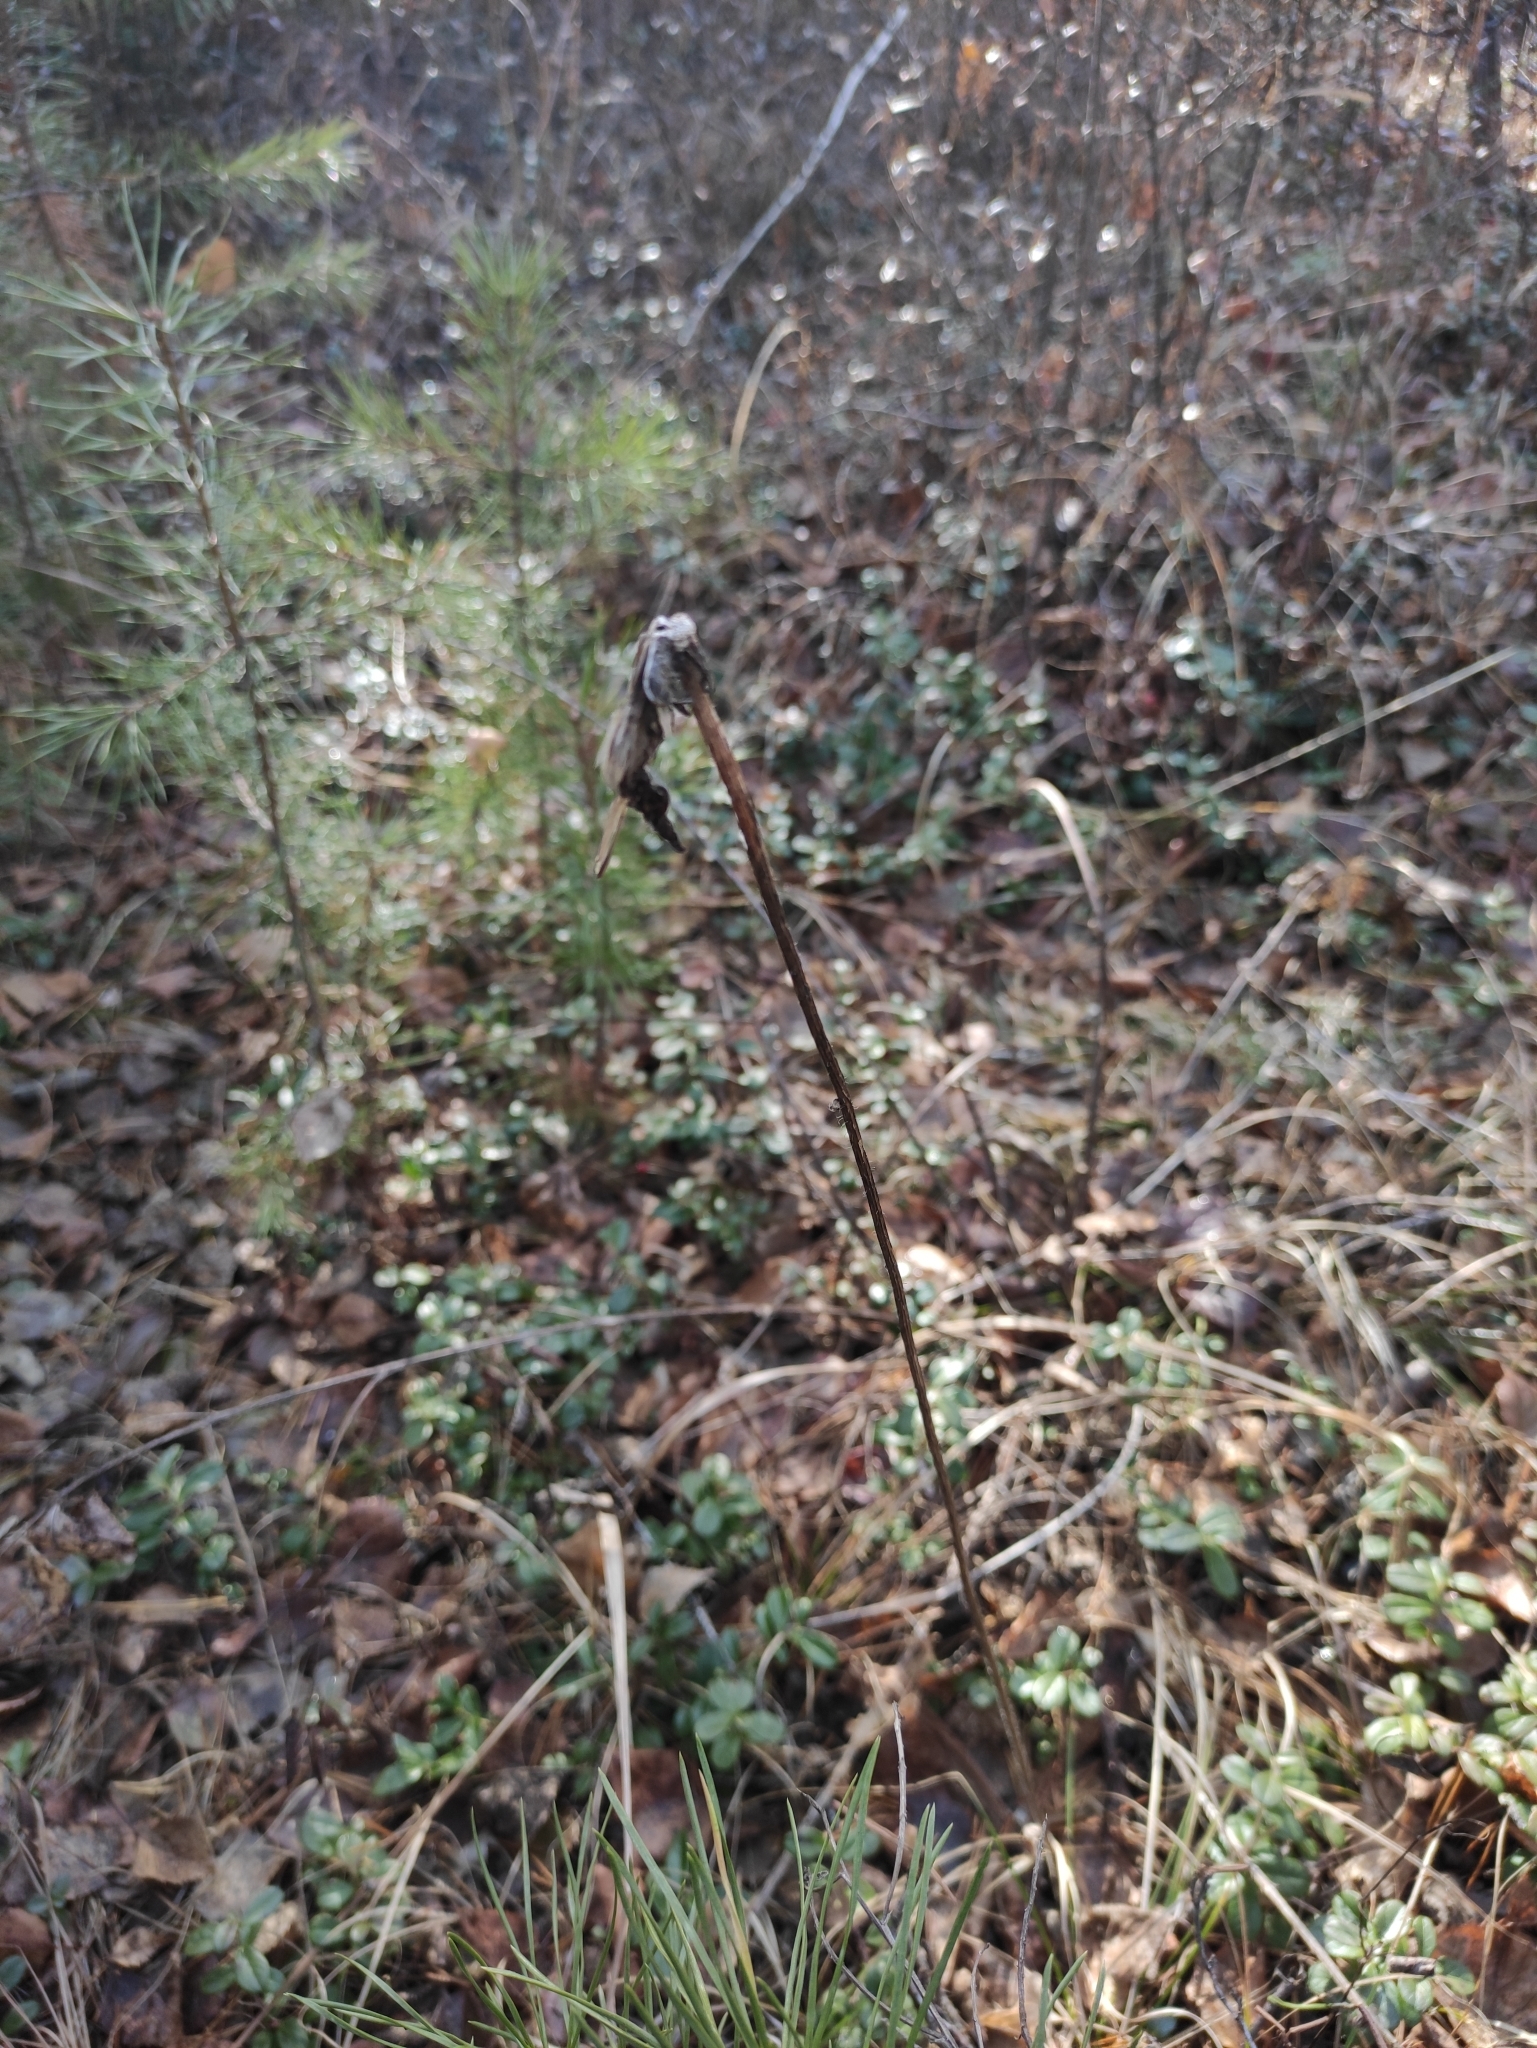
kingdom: Plantae
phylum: Tracheophyta
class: Magnoliopsida
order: Asterales
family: Asteraceae
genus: Trommsdorffia
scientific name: Trommsdorffia maculata
